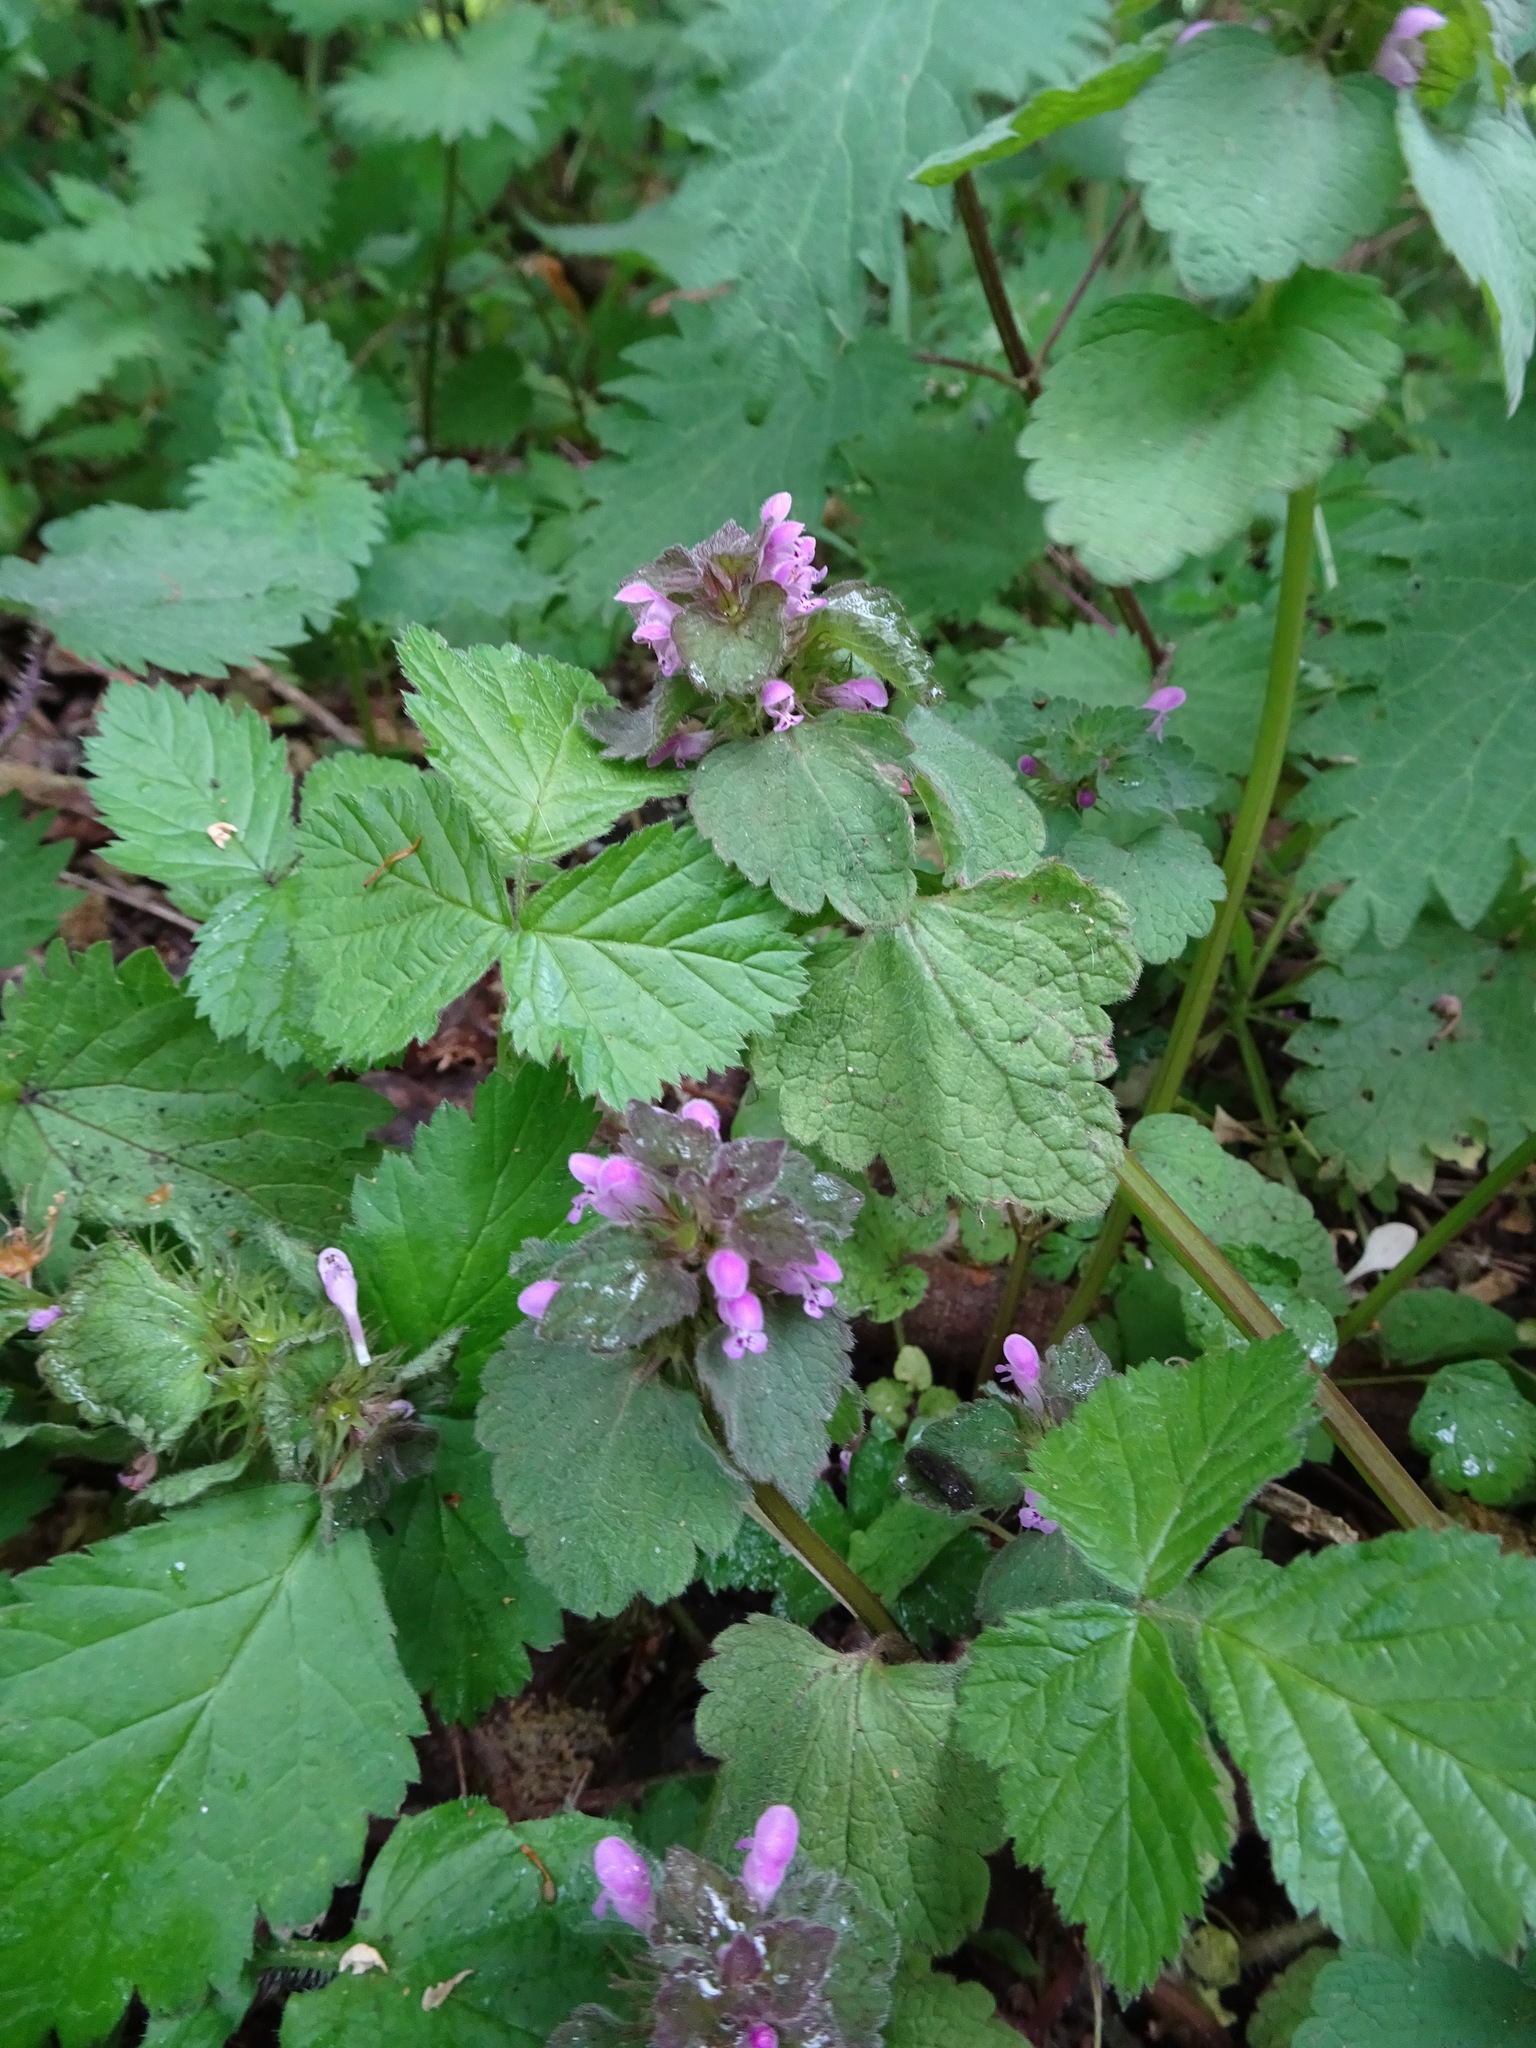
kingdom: Plantae
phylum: Tracheophyta
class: Magnoliopsida
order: Lamiales
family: Lamiaceae
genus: Lamium
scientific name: Lamium purpureum
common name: Red dead-nettle
